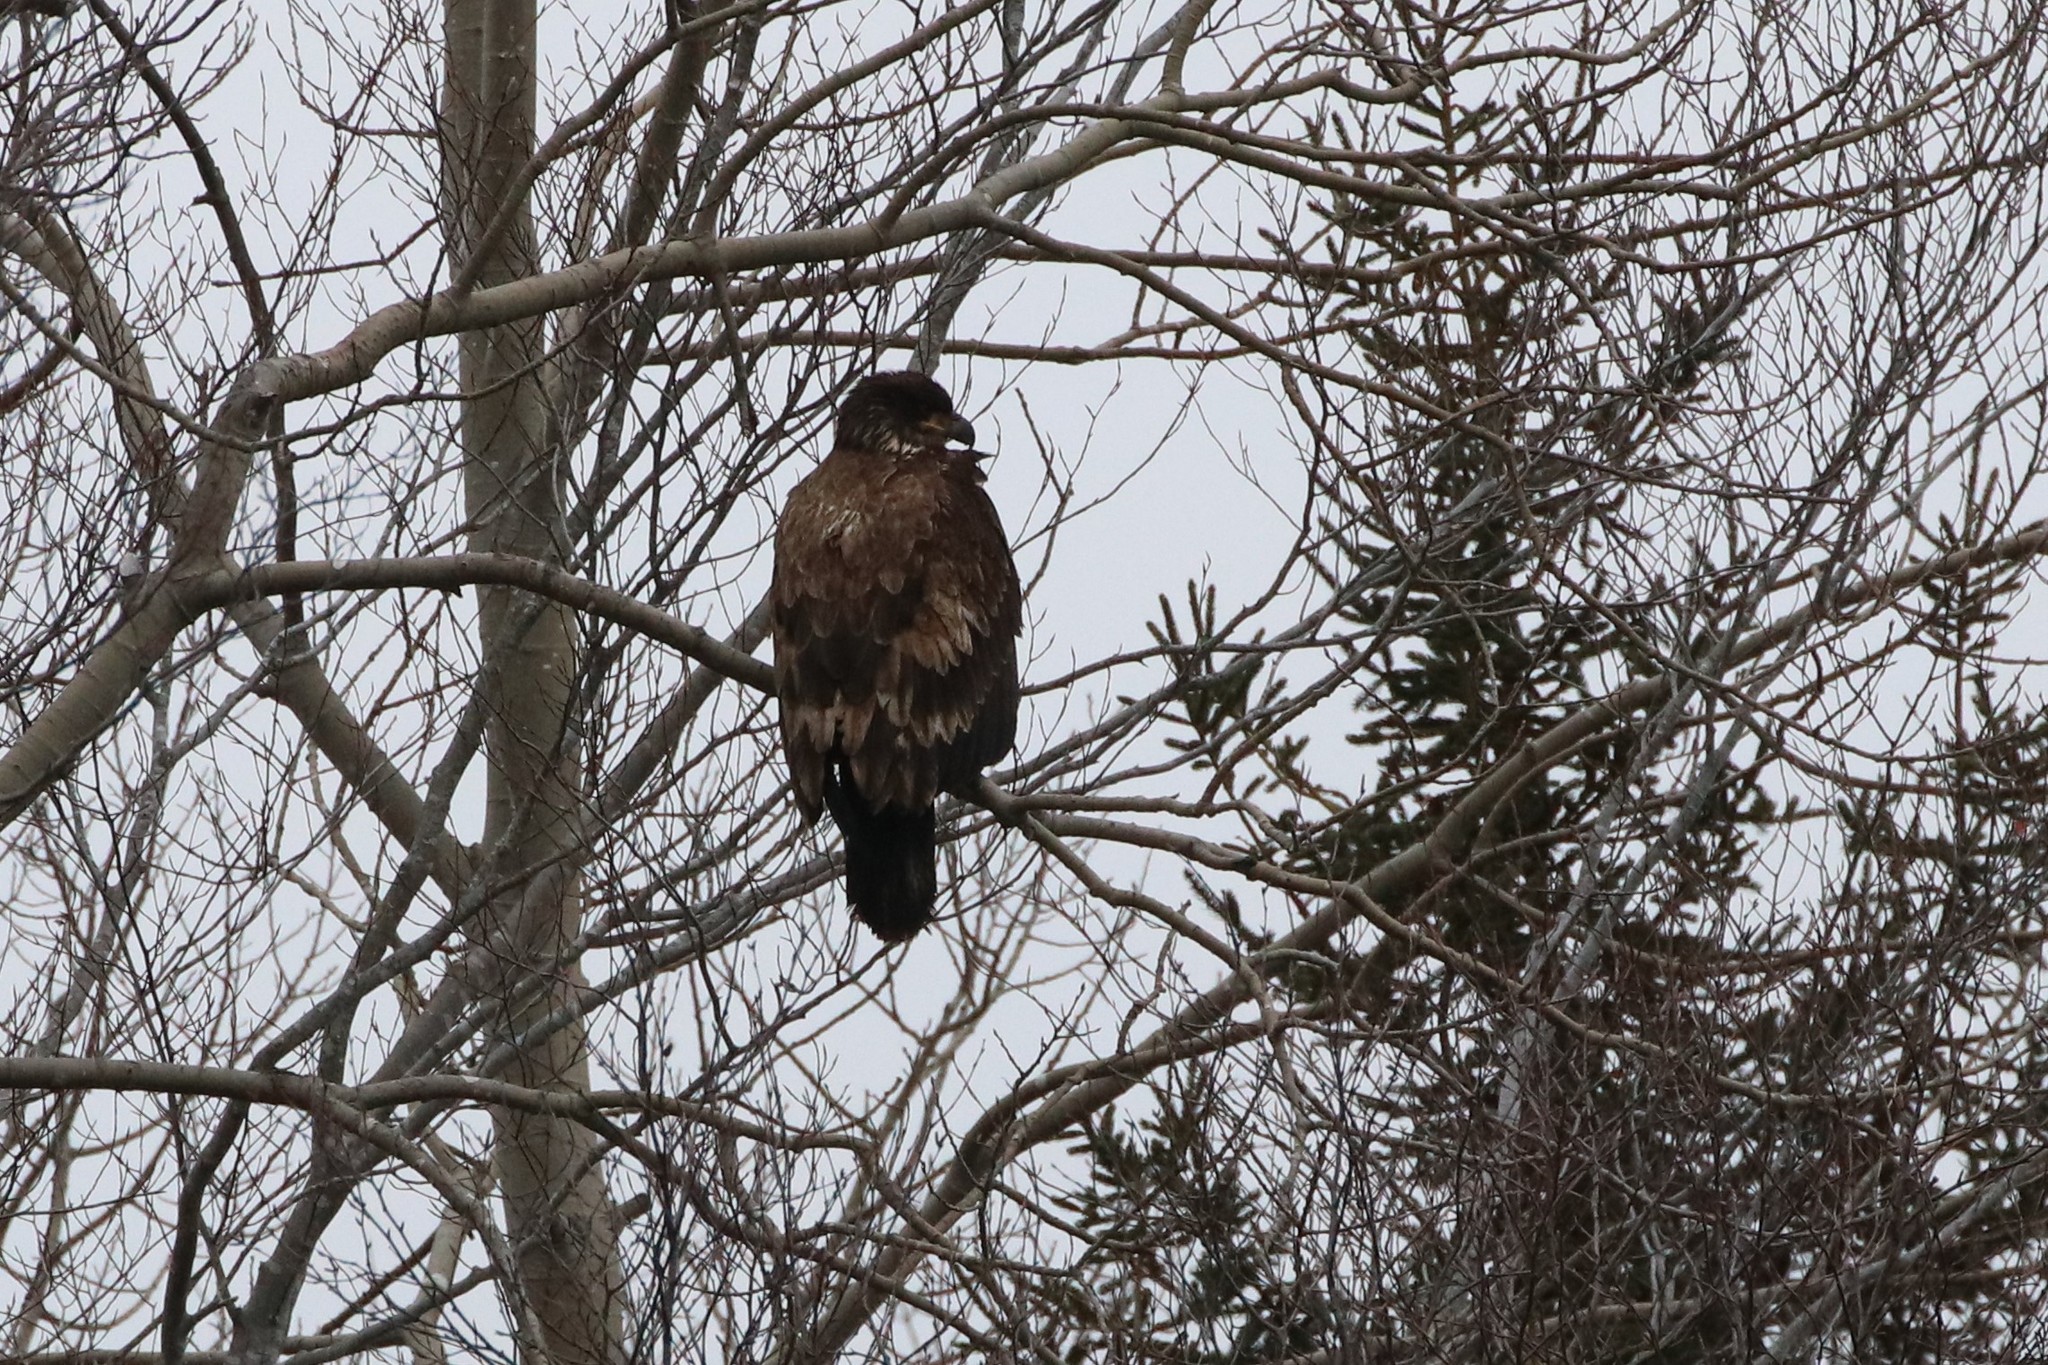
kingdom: Animalia
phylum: Chordata
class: Aves
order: Accipitriformes
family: Accipitridae
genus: Haliaeetus
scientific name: Haliaeetus leucocephalus
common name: Bald eagle
